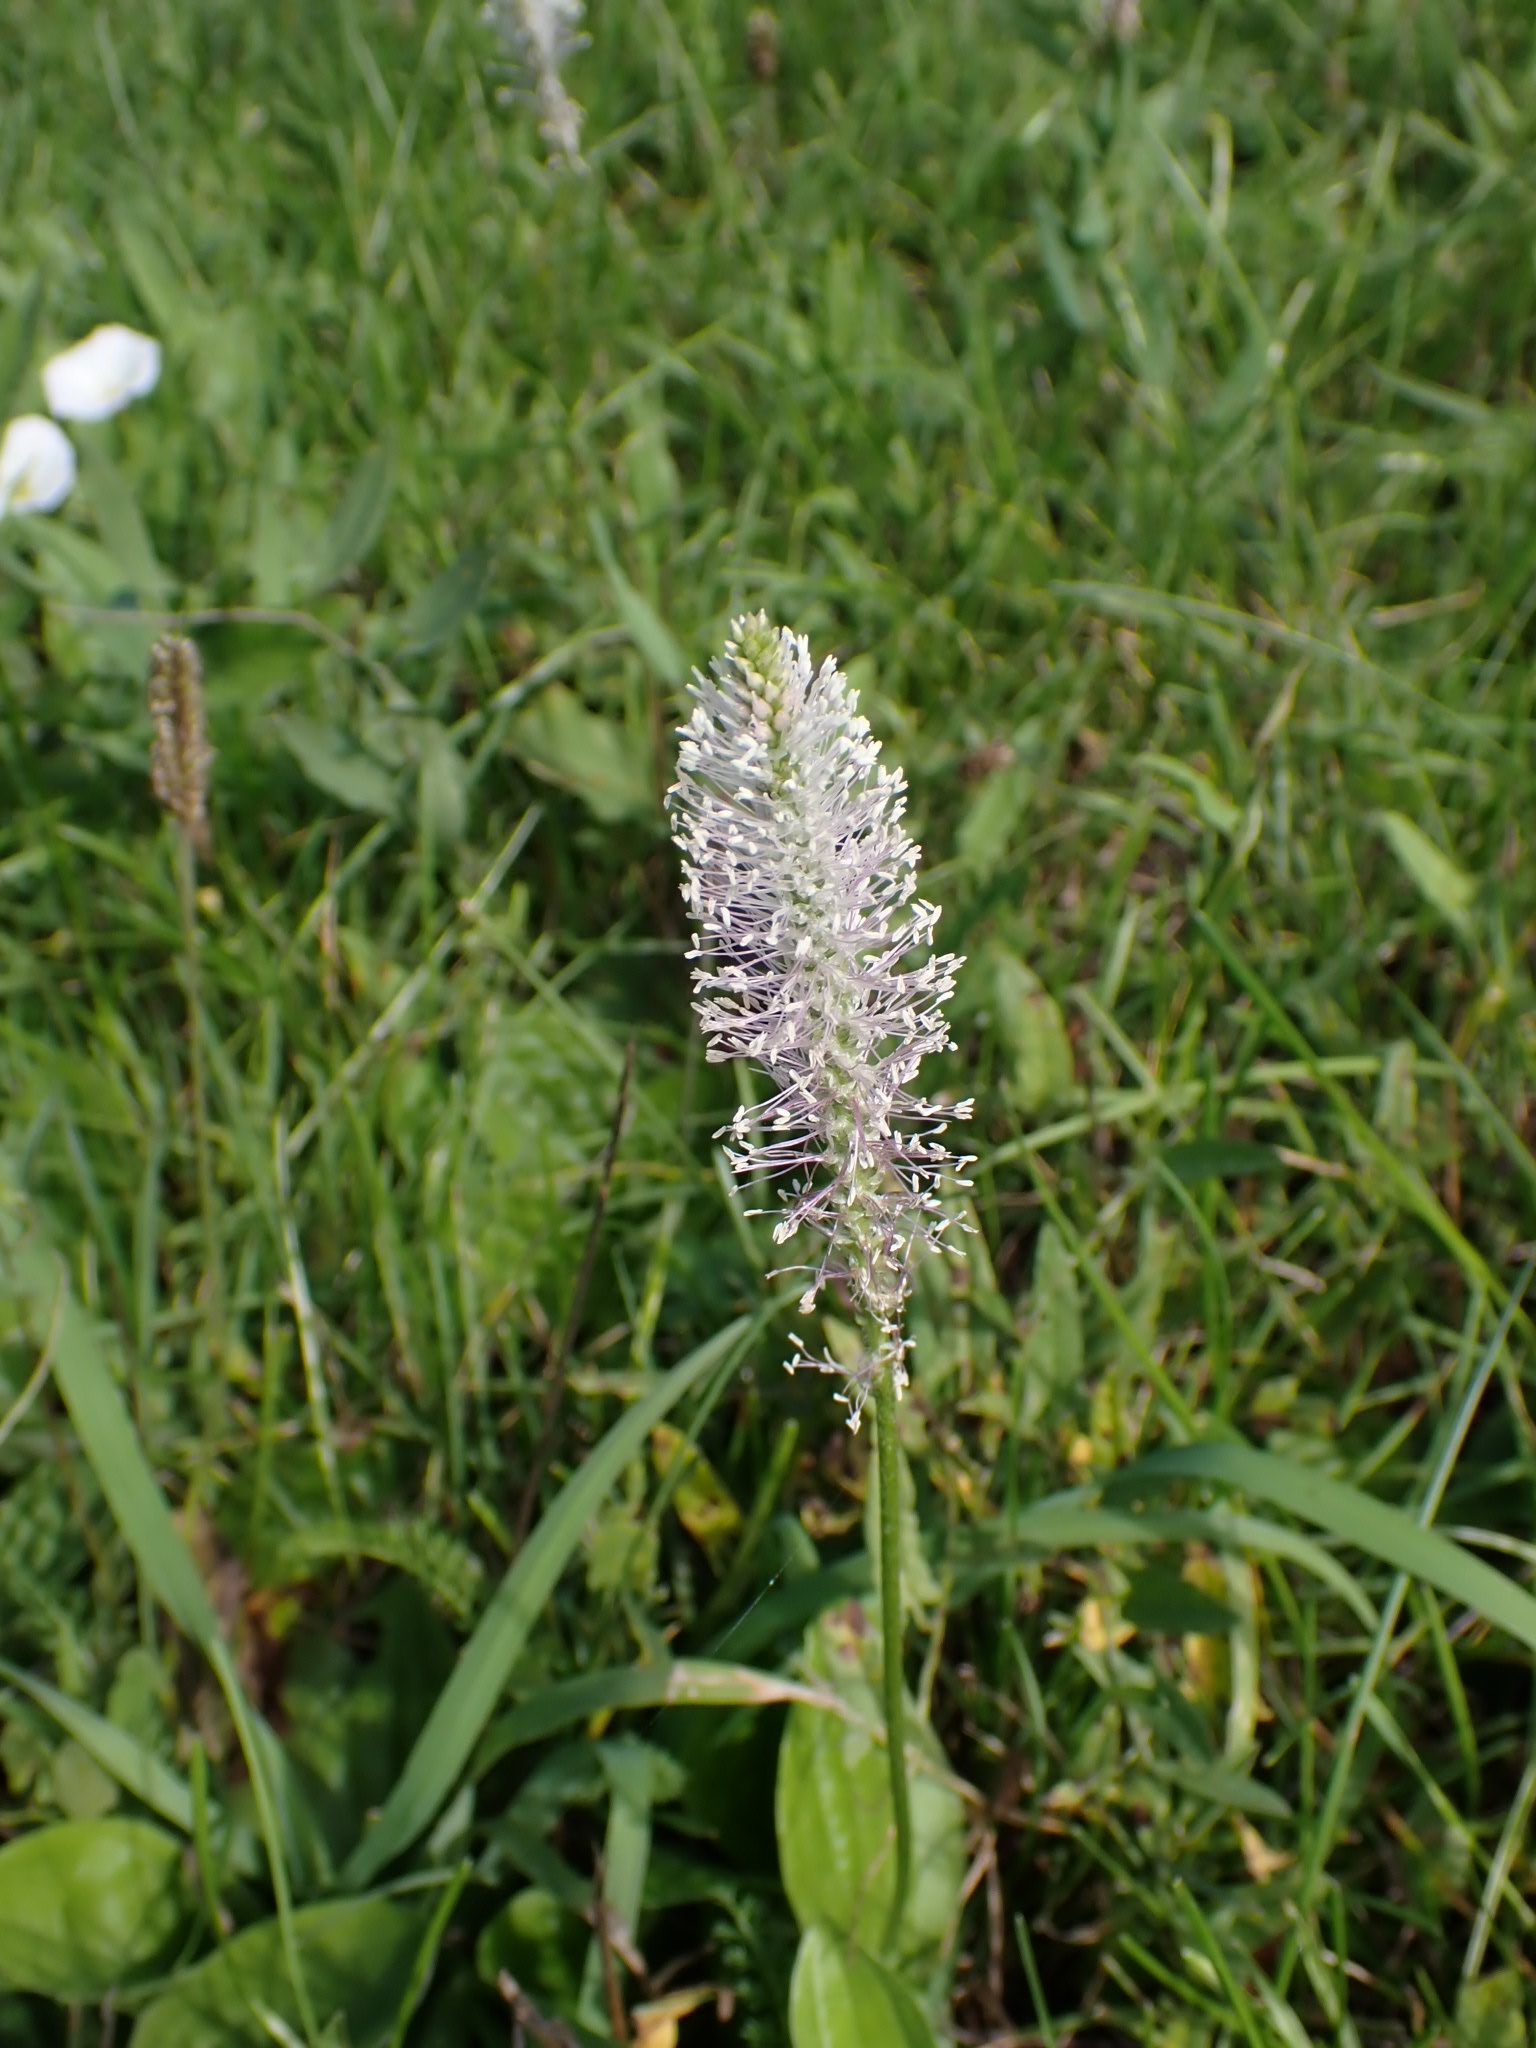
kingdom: Plantae
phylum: Tracheophyta
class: Magnoliopsida
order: Lamiales
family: Plantaginaceae
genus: Plantago
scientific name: Plantago media
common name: Hoary plantain
